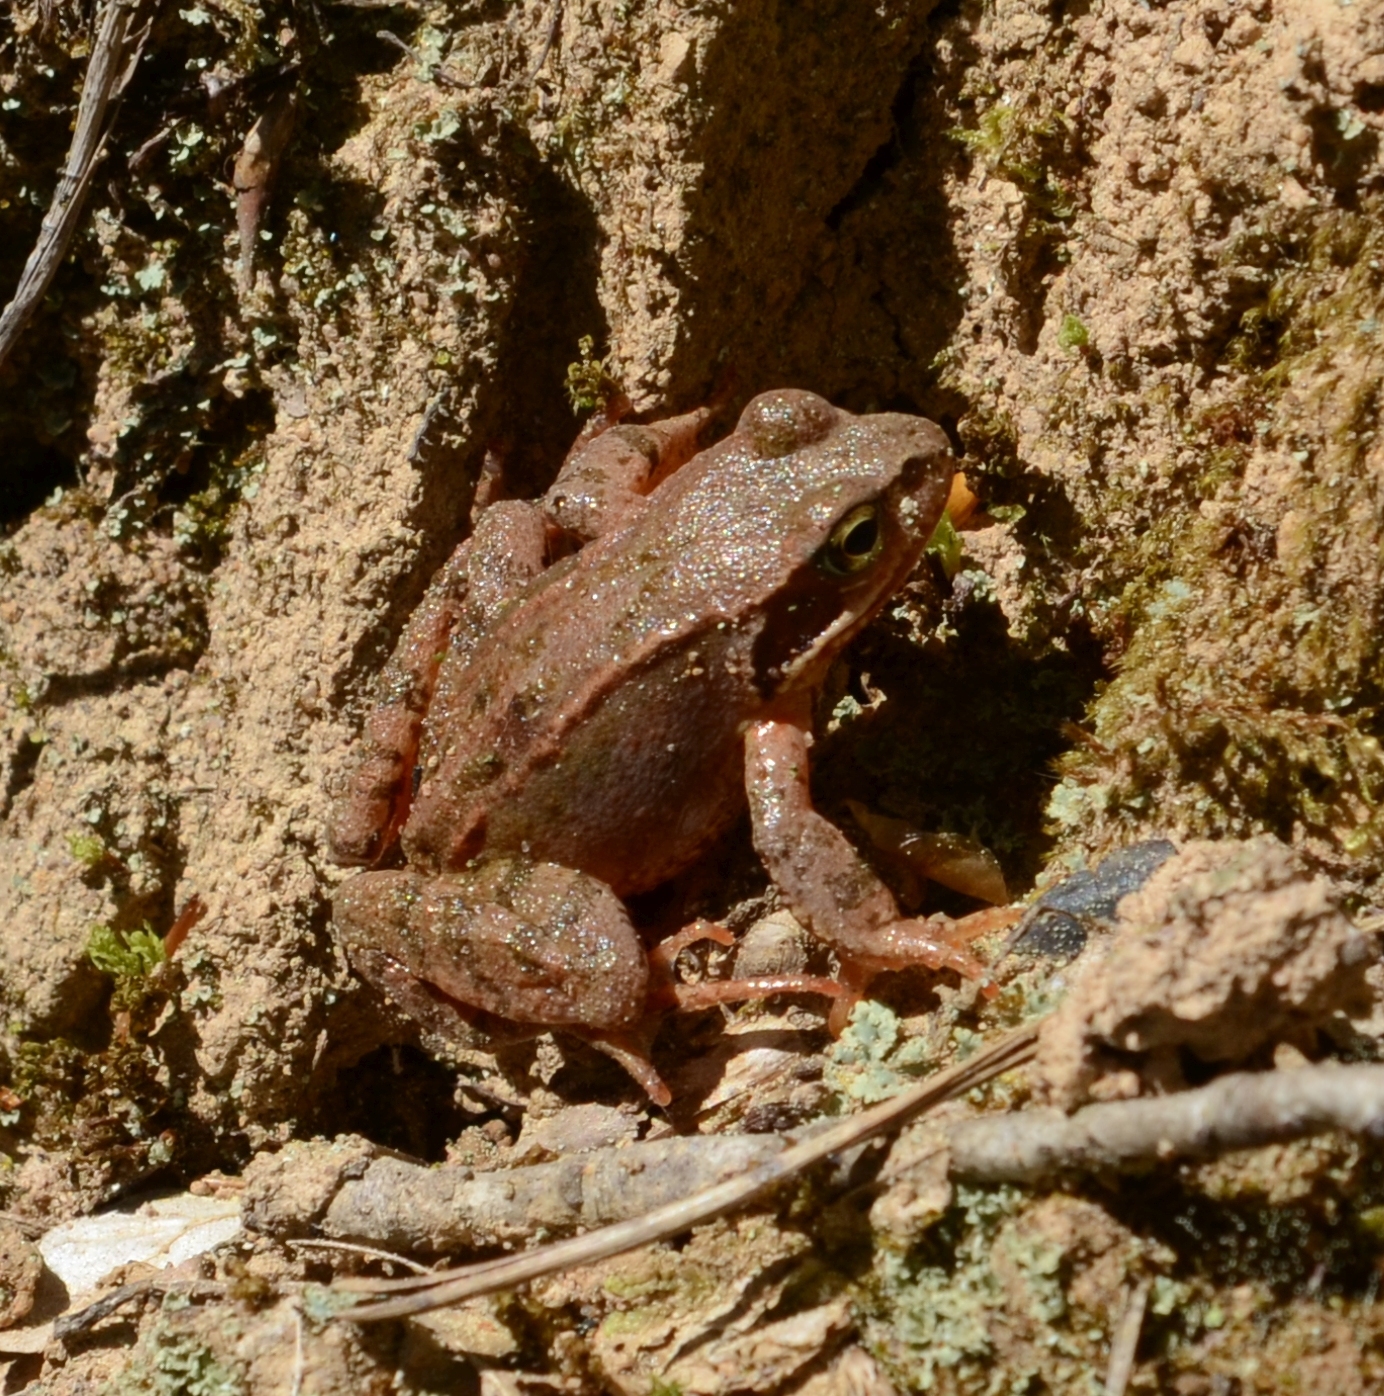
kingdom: Animalia
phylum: Chordata
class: Amphibia
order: Anura
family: Ranidae
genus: Rana
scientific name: Rana temporaria
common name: Common frog
